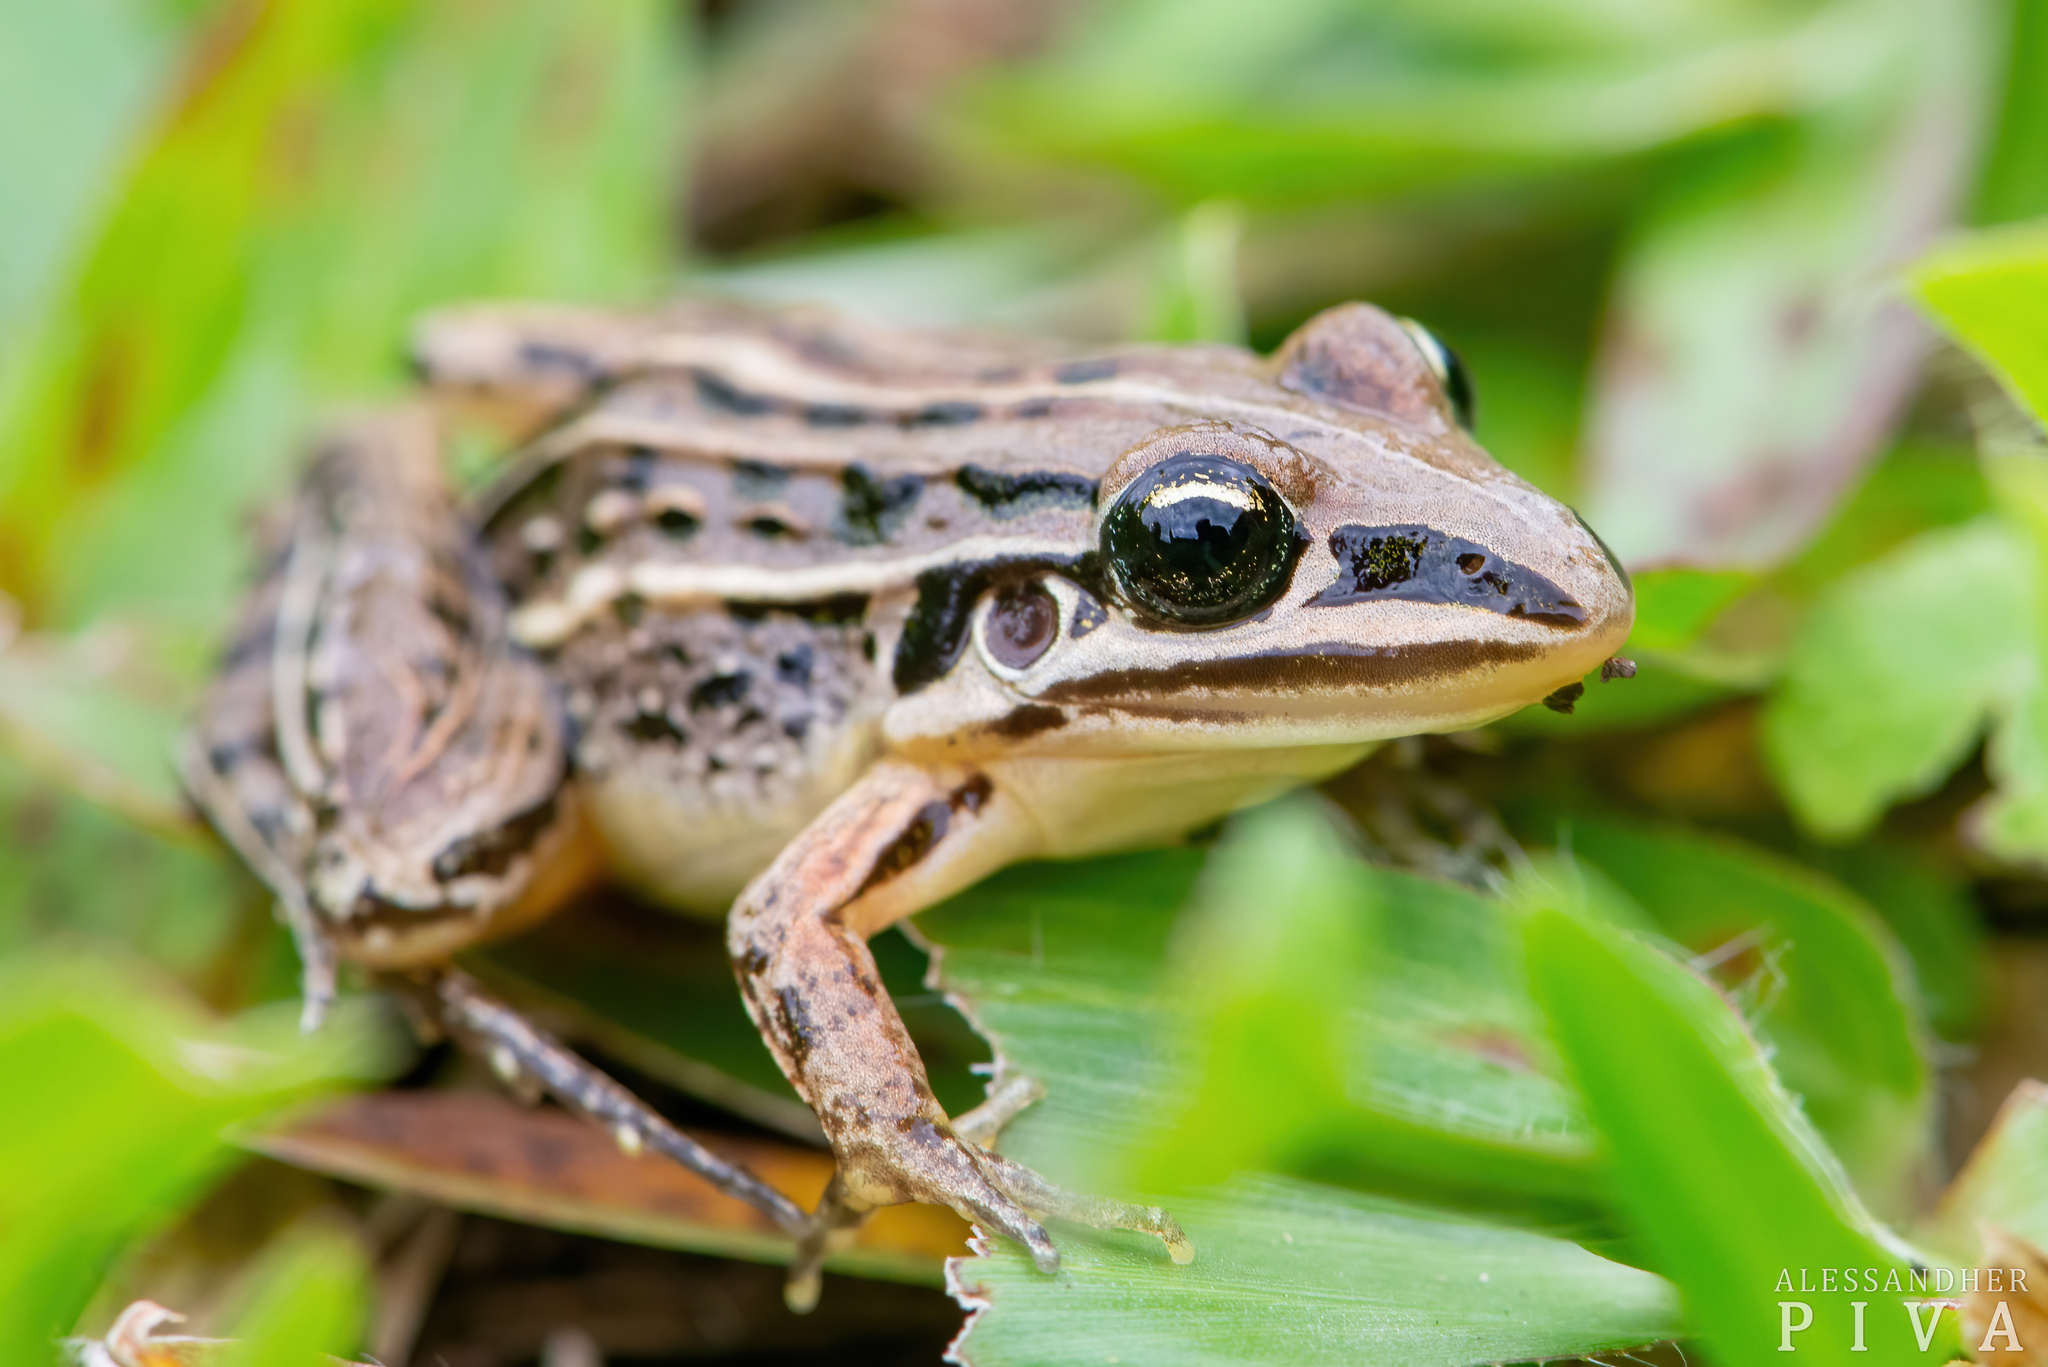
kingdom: Animalia
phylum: Chordata
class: Amphibia
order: Anura
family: Leptodactylidae
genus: Leptodactylus
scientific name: Leptodactylus plaumanni
